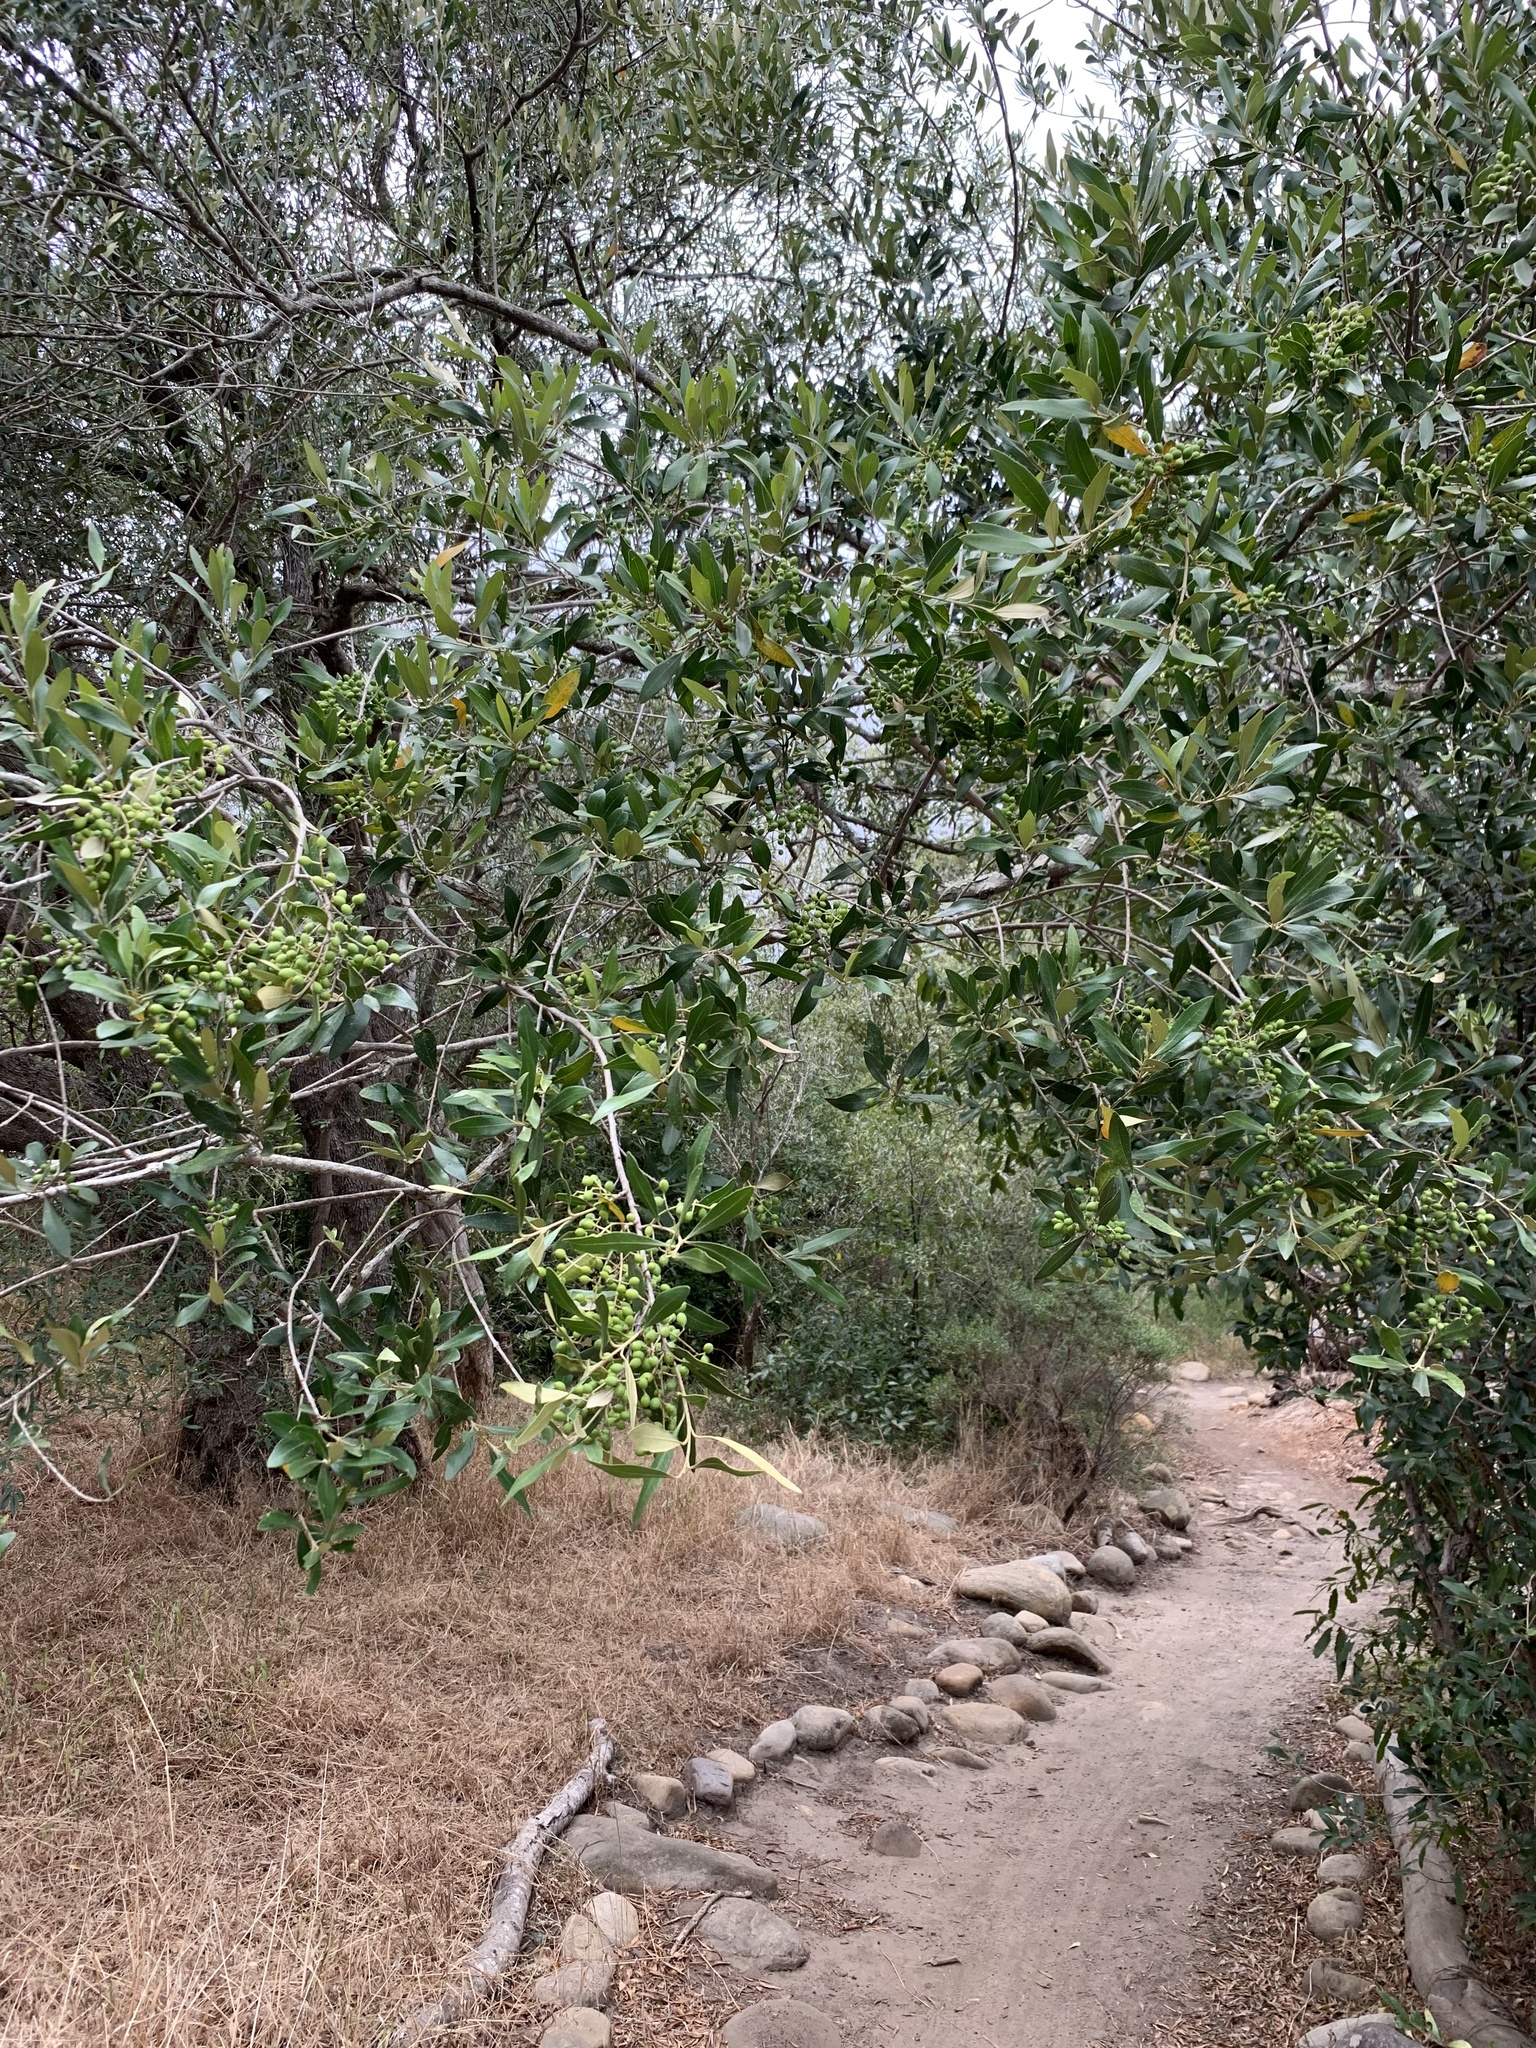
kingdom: Plantae
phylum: Tracheophyta
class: Magnoliopsida
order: Lamiales
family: Oleaceae
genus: Olea
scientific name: Olea europaea
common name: Olive
